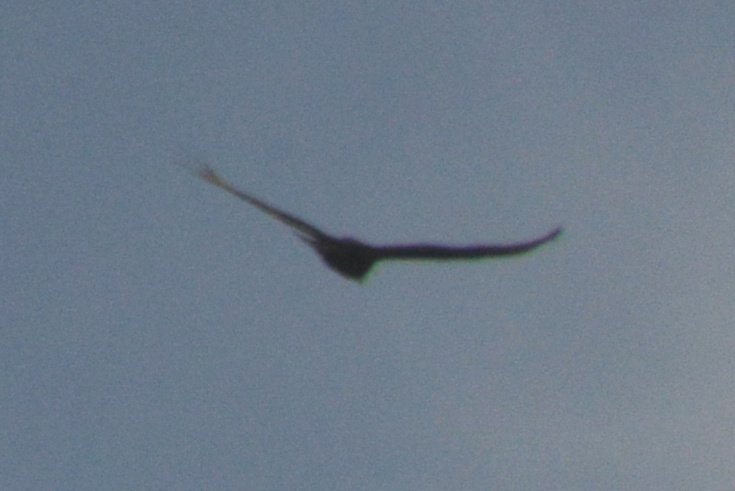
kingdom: Animalia
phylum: Chordata
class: Aves
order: Accipitriformes
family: Cathartidae
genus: Cathartes
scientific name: Cathartes aura
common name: Turkey vulture
